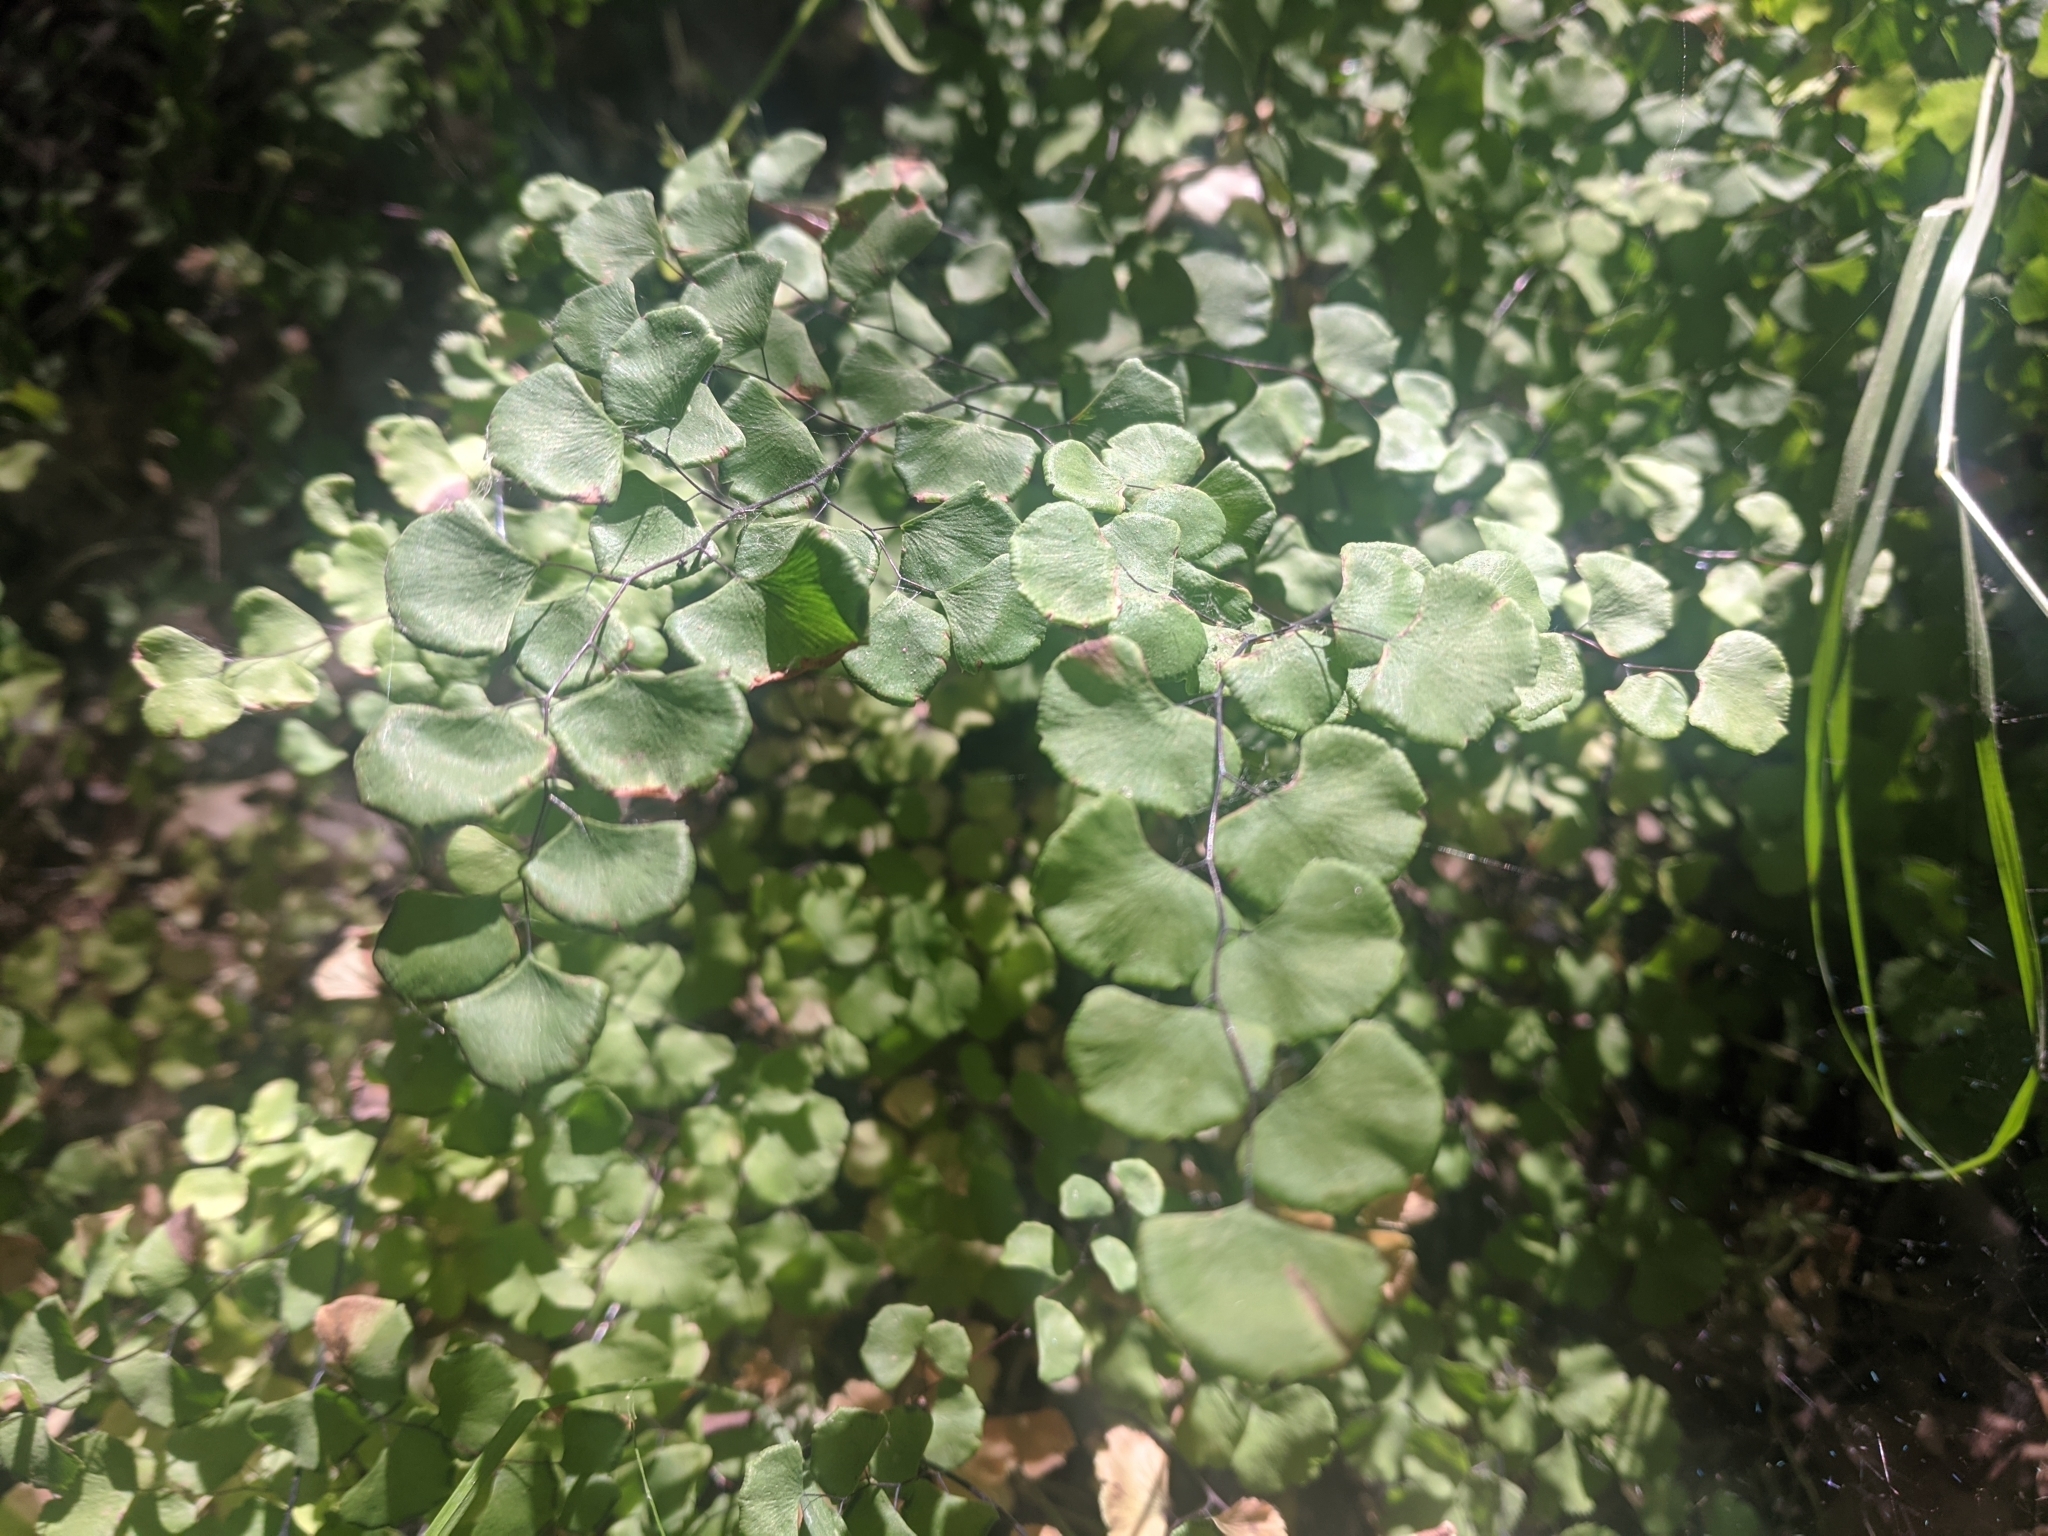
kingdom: Plantae
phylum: Tracheophyta
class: Polypodiopsida
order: Polypodiales
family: Pteridaceae
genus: Adiantum
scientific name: Adiantum jordanii
